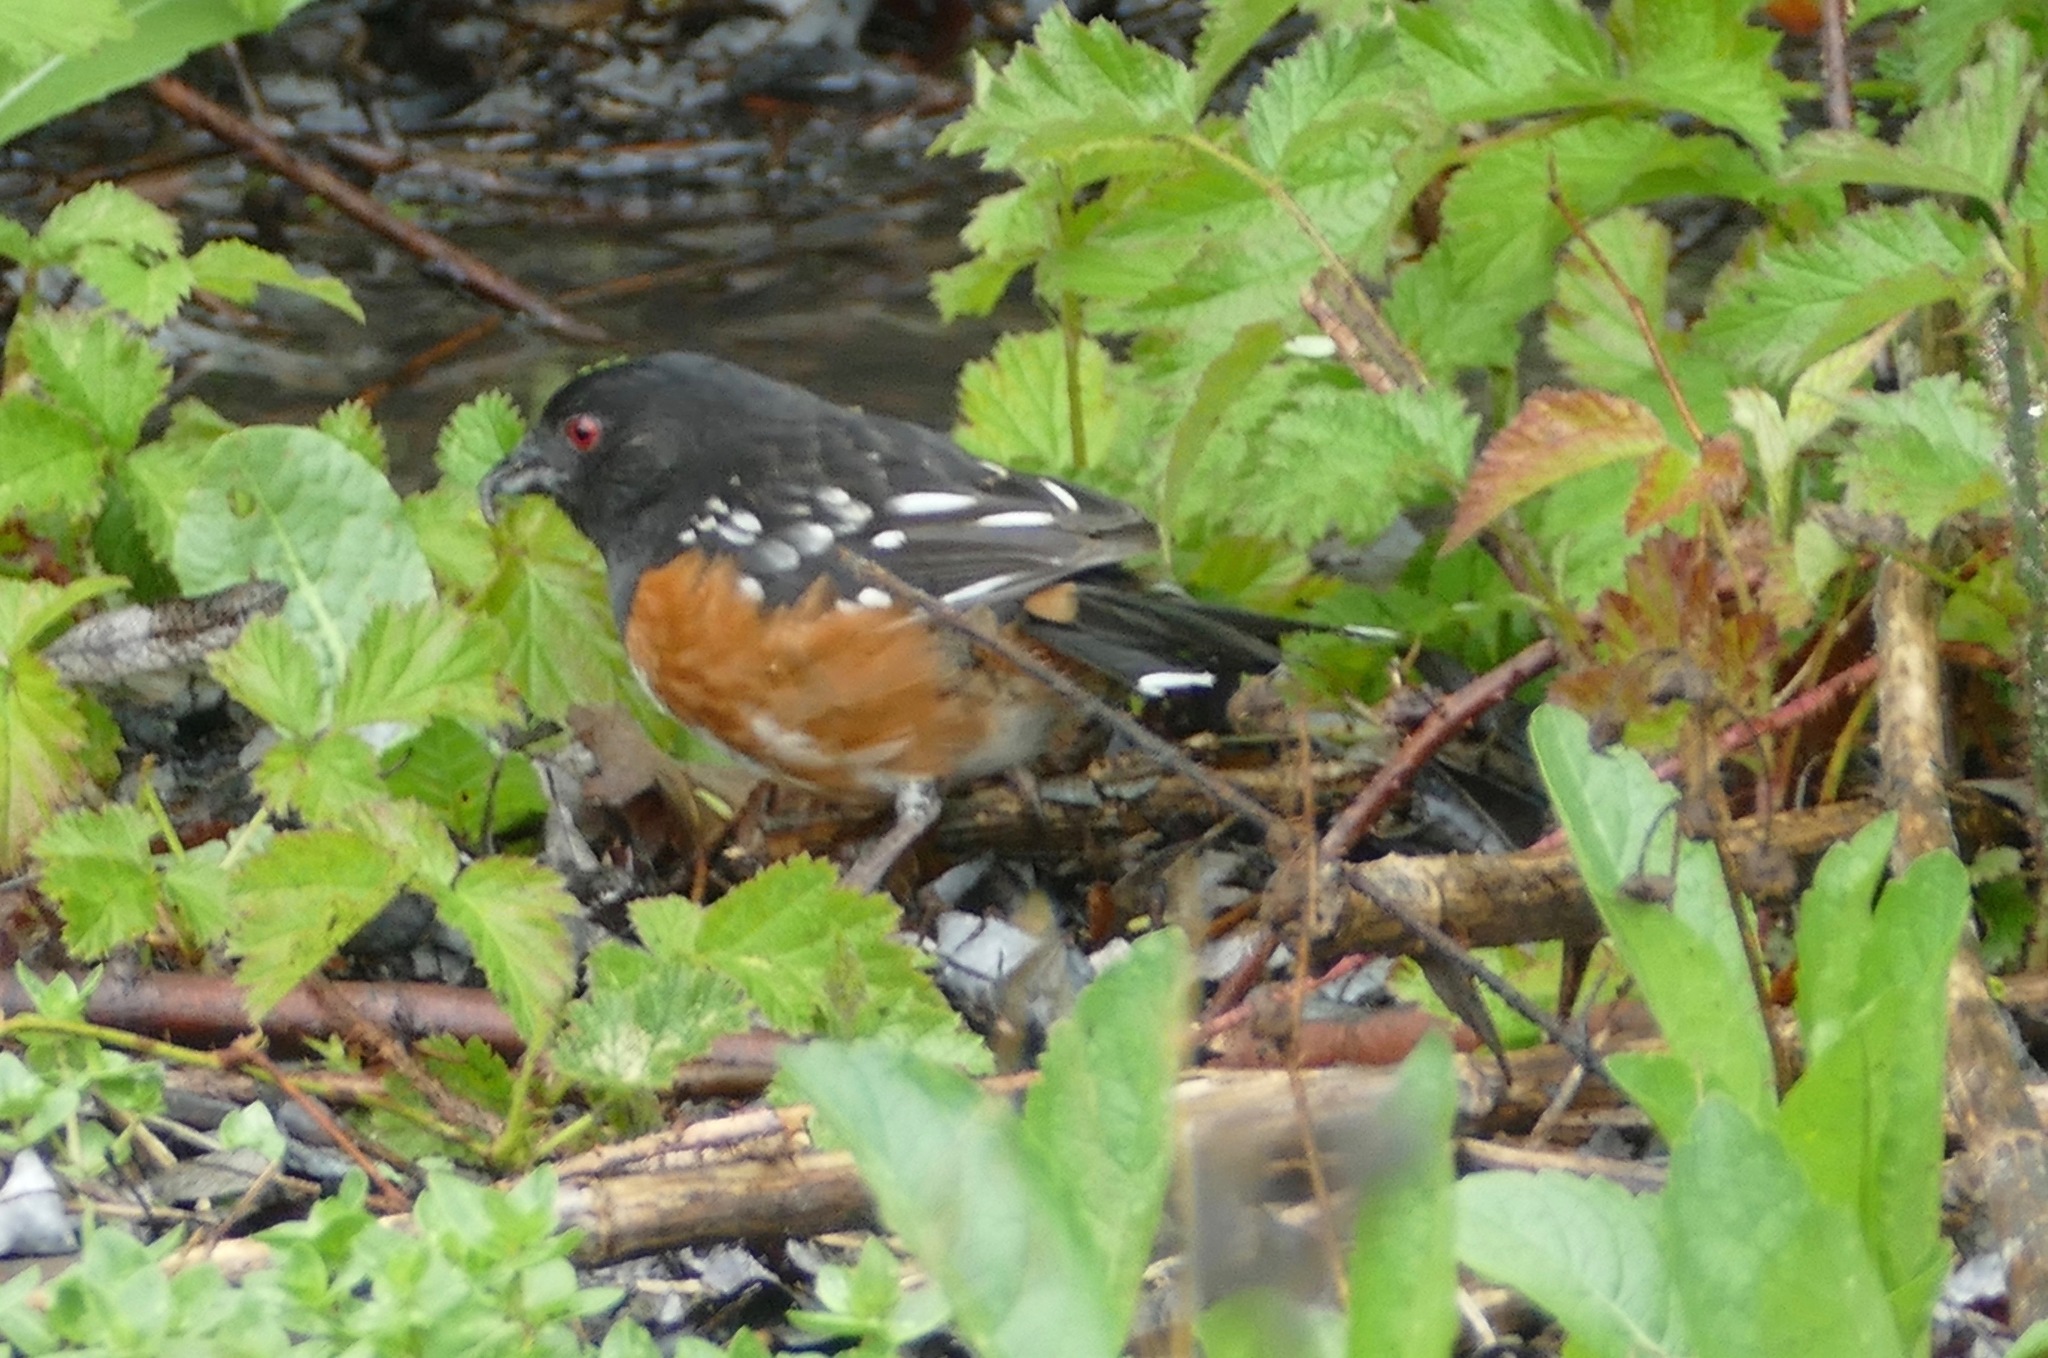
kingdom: Animalia
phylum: Chordata
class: Aves
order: Passeriformes
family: Passerellidae
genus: Pipilo
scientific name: Pipilo maculatus
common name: Spotted towhee
